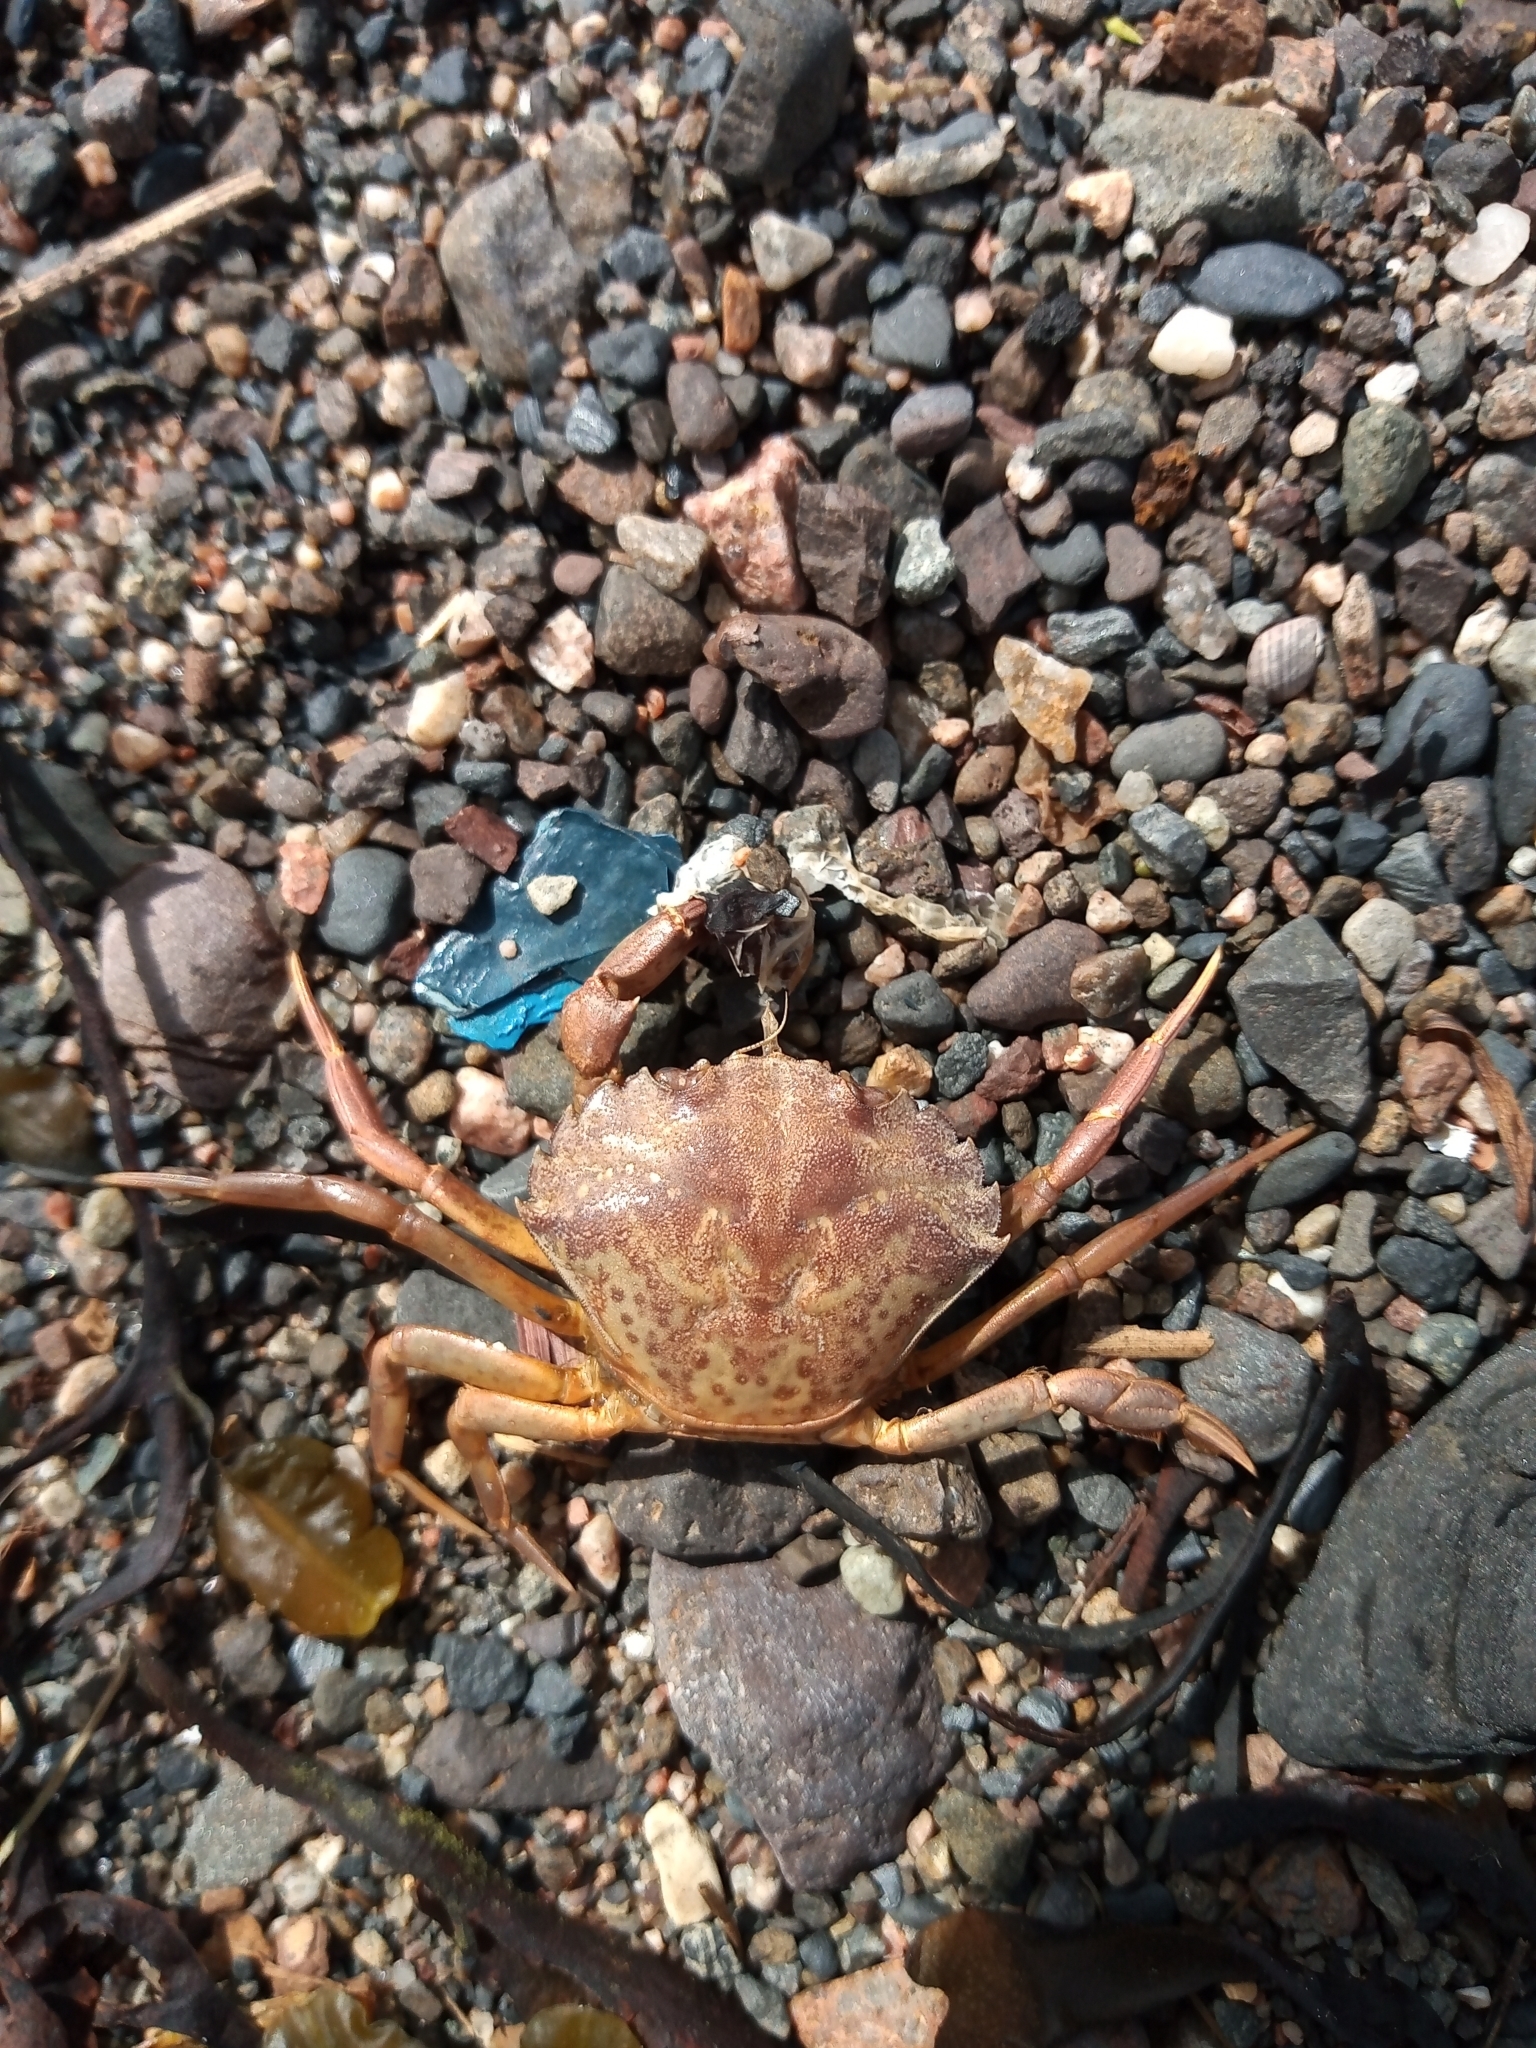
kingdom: Animalia
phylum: Arthropoda
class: Malacostraca
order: Decapoda
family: Carcinidae
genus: Carcinus
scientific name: Carcinus maenas
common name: European green crab
